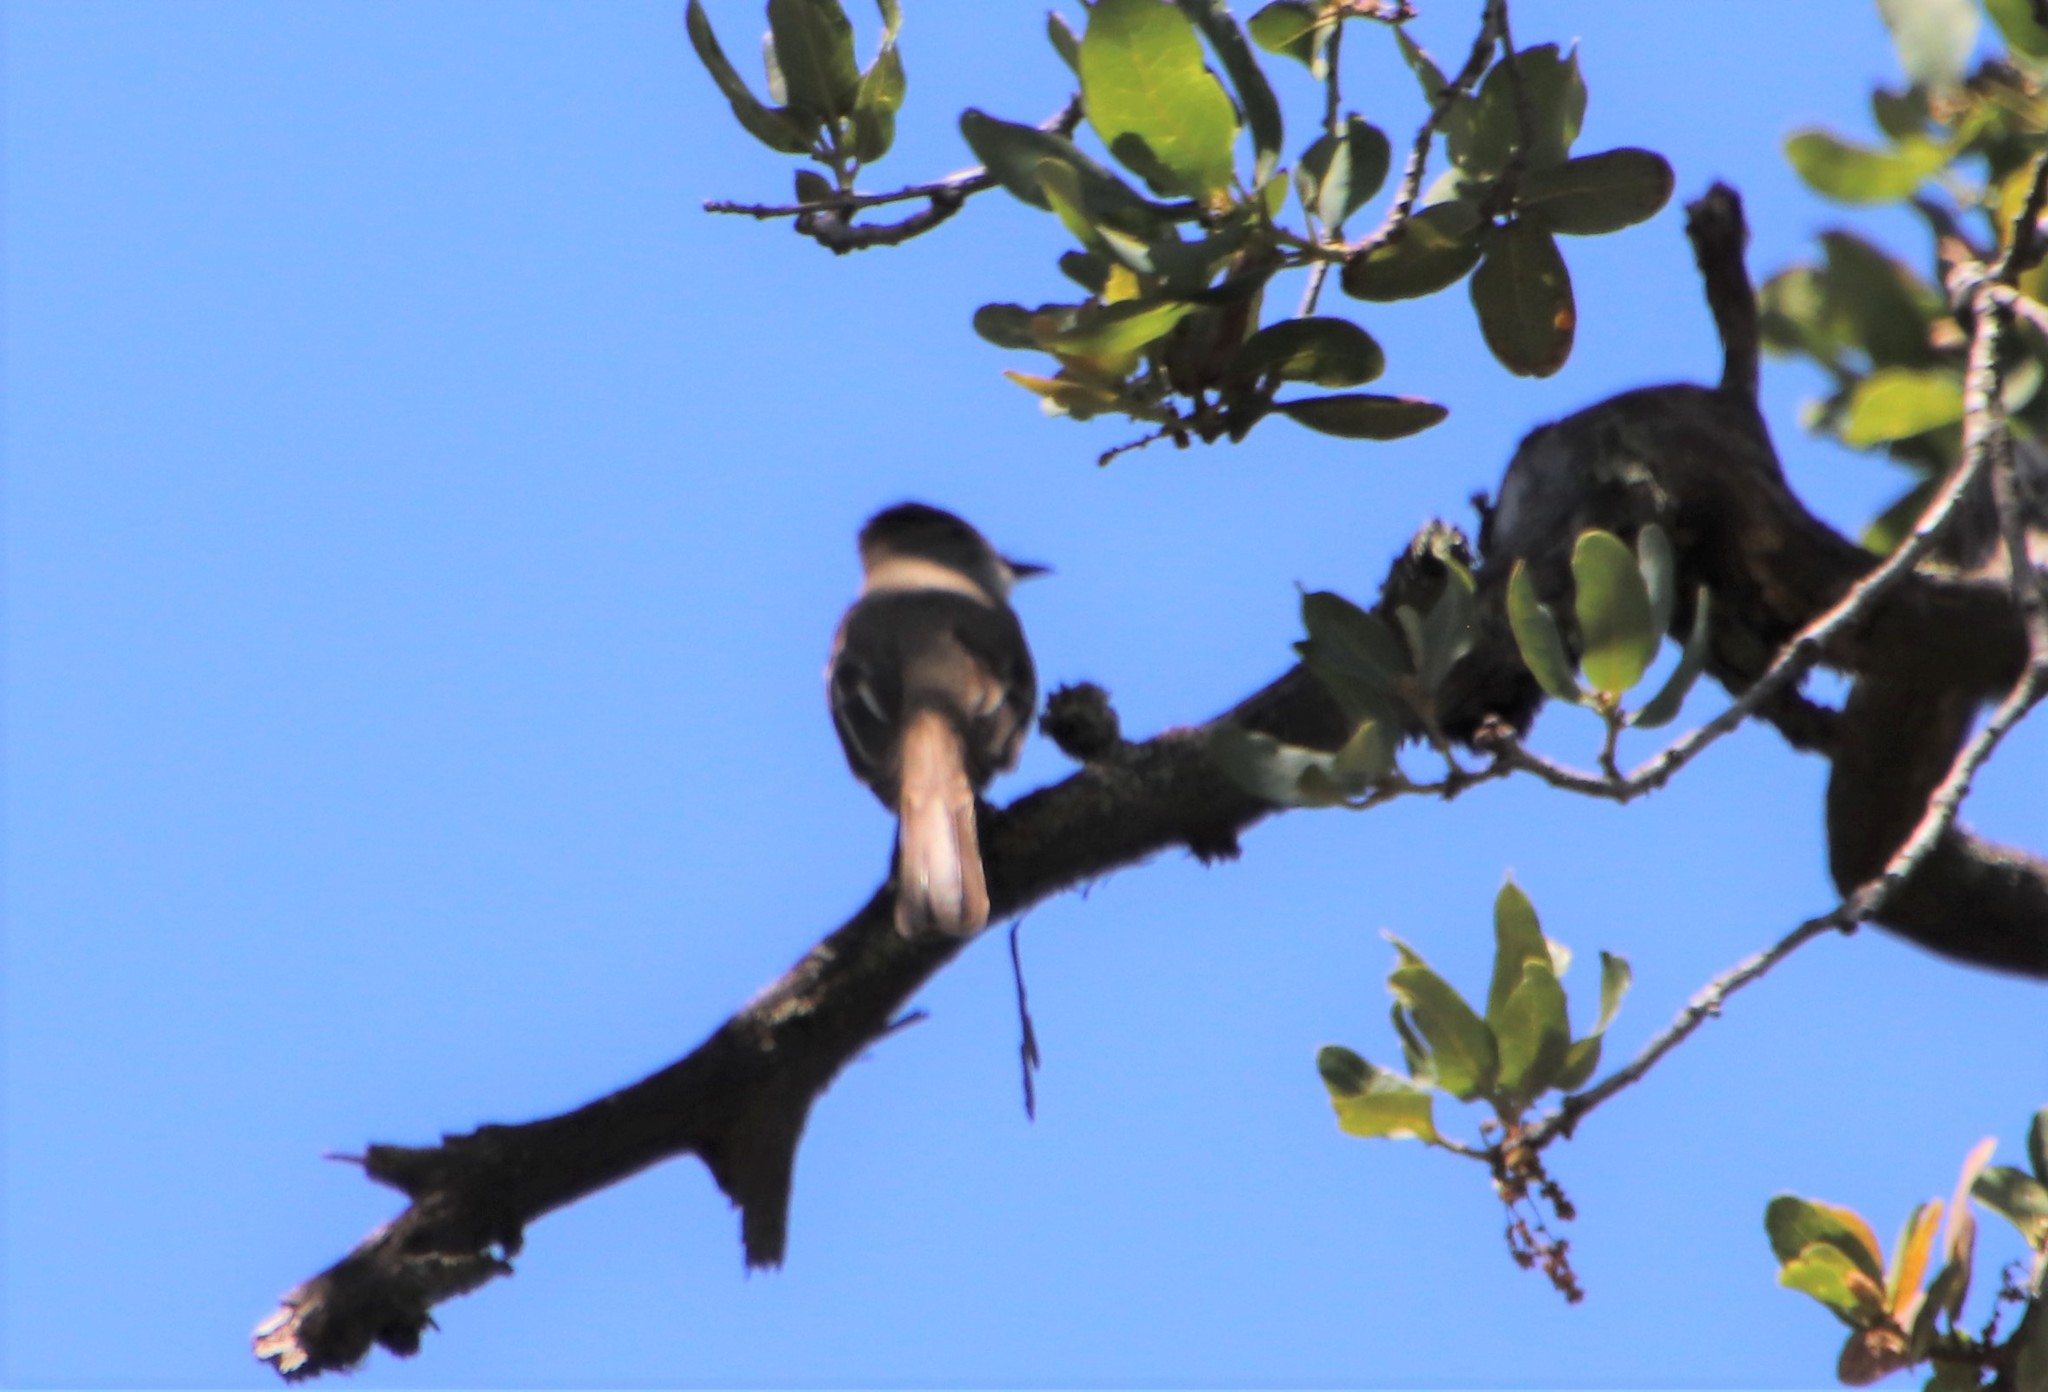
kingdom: Animalia
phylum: Chordata
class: Aves
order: Passeriformes
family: Tyrannidae
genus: Myiarchus
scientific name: Myiarchus cinerascens
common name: Ash-throated flycatcher
